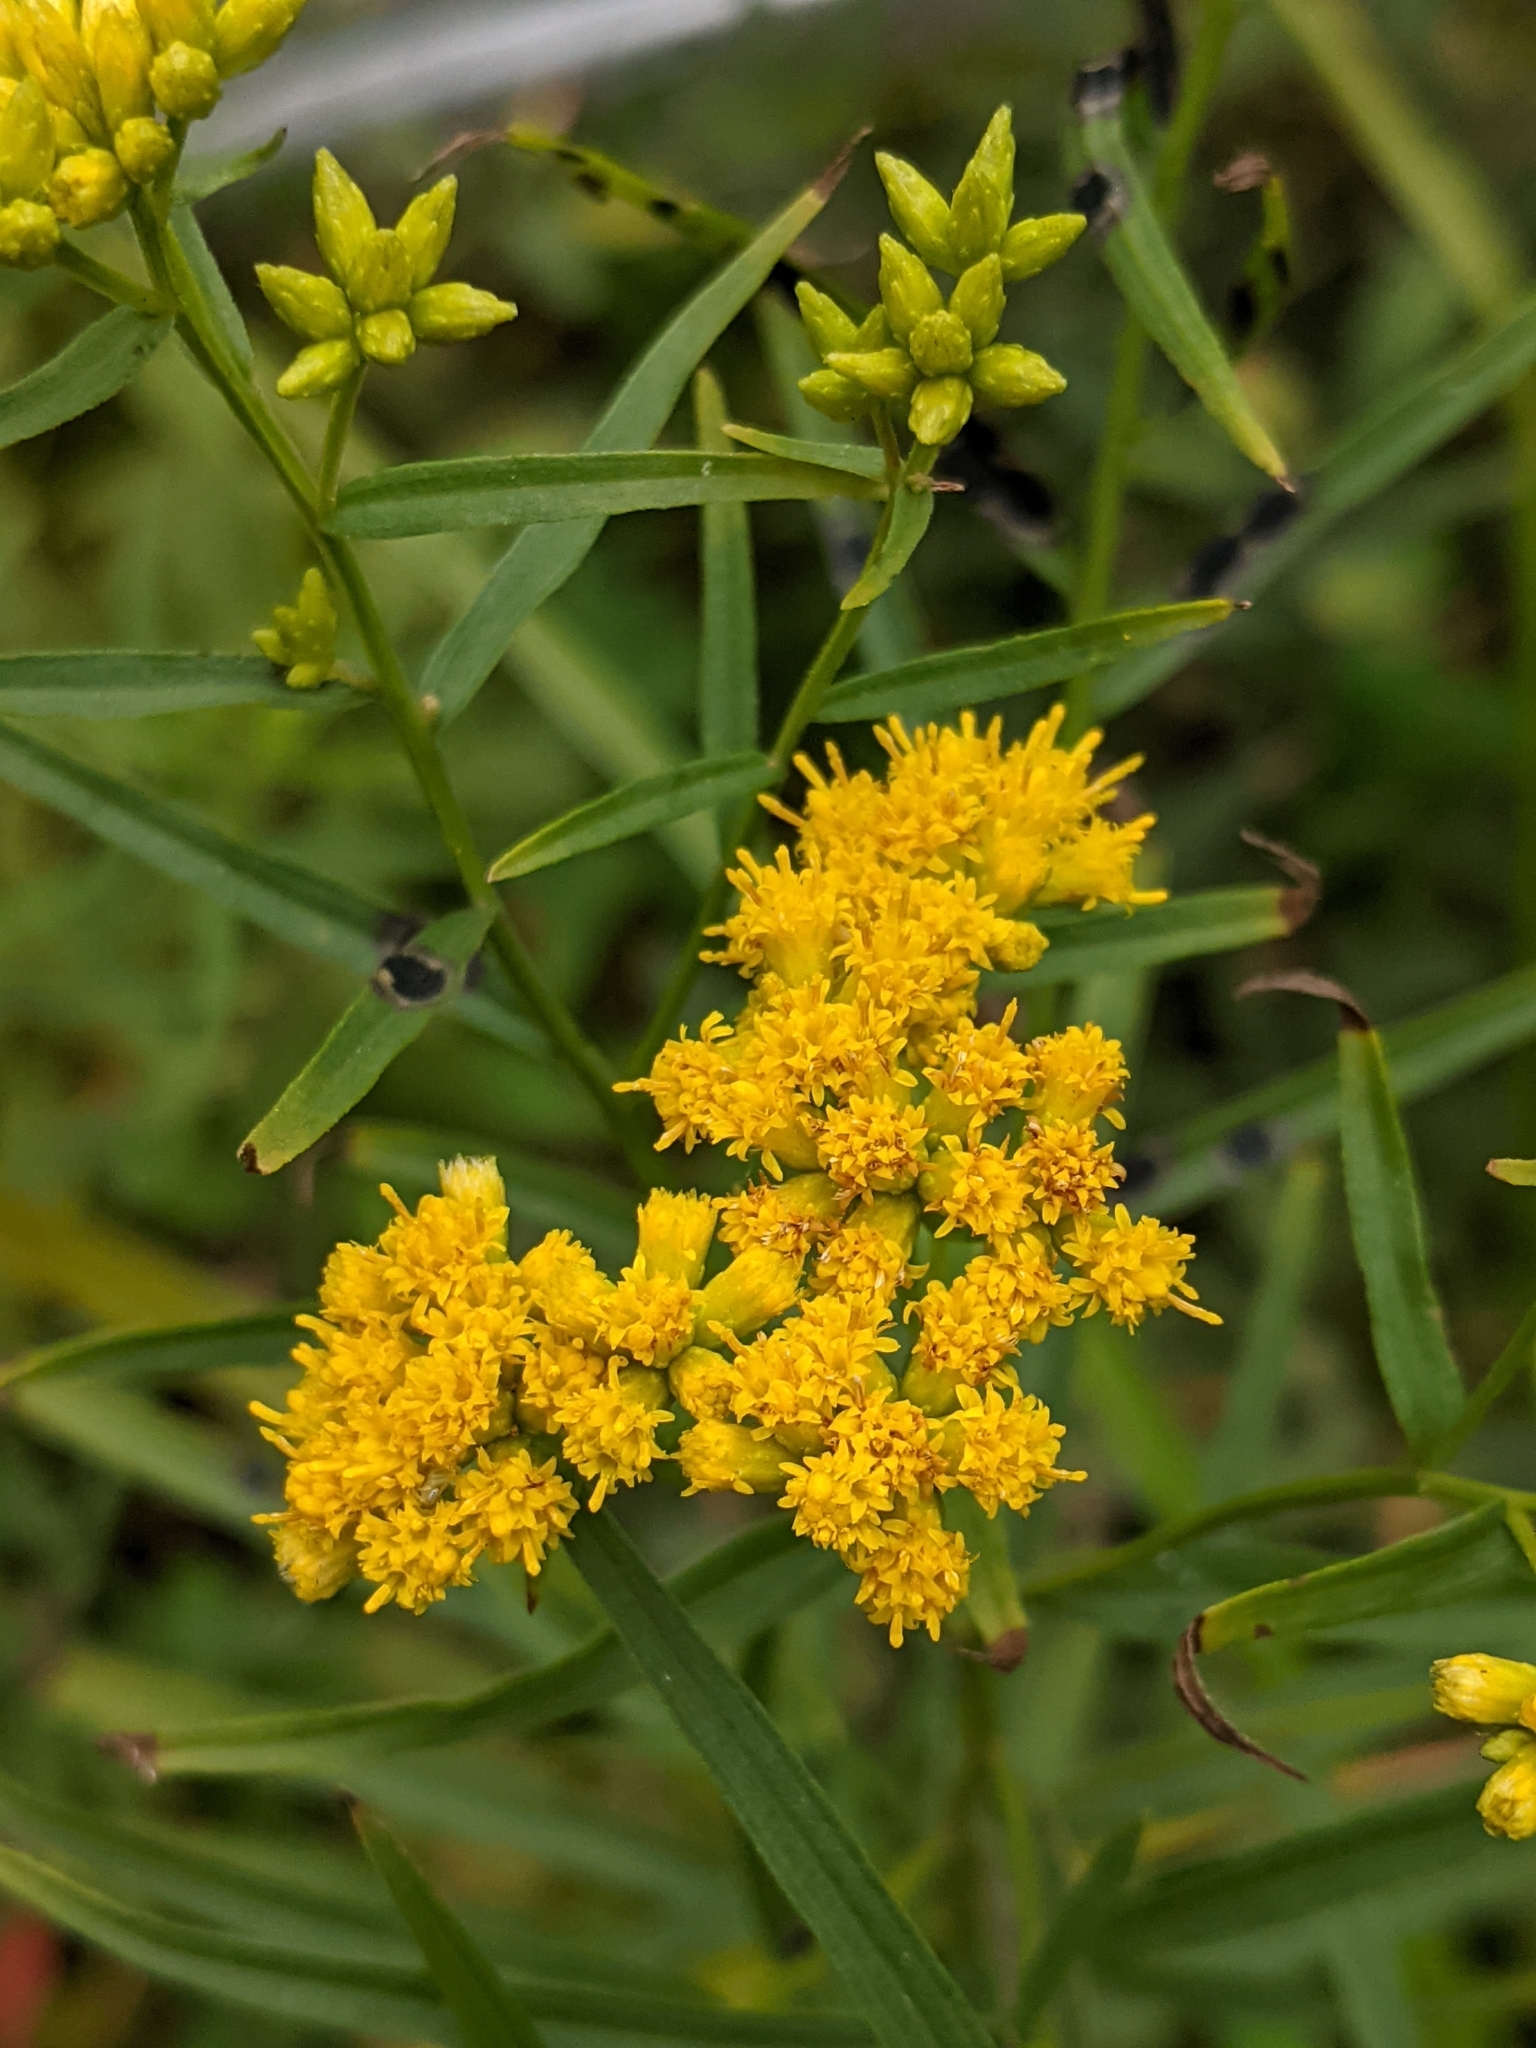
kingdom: Plantae
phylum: Tracheophyta
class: Magnoliopsida
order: Asterales
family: Asteraceae
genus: Euthamia
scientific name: Euthamia graminifolia
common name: Common goldentop
